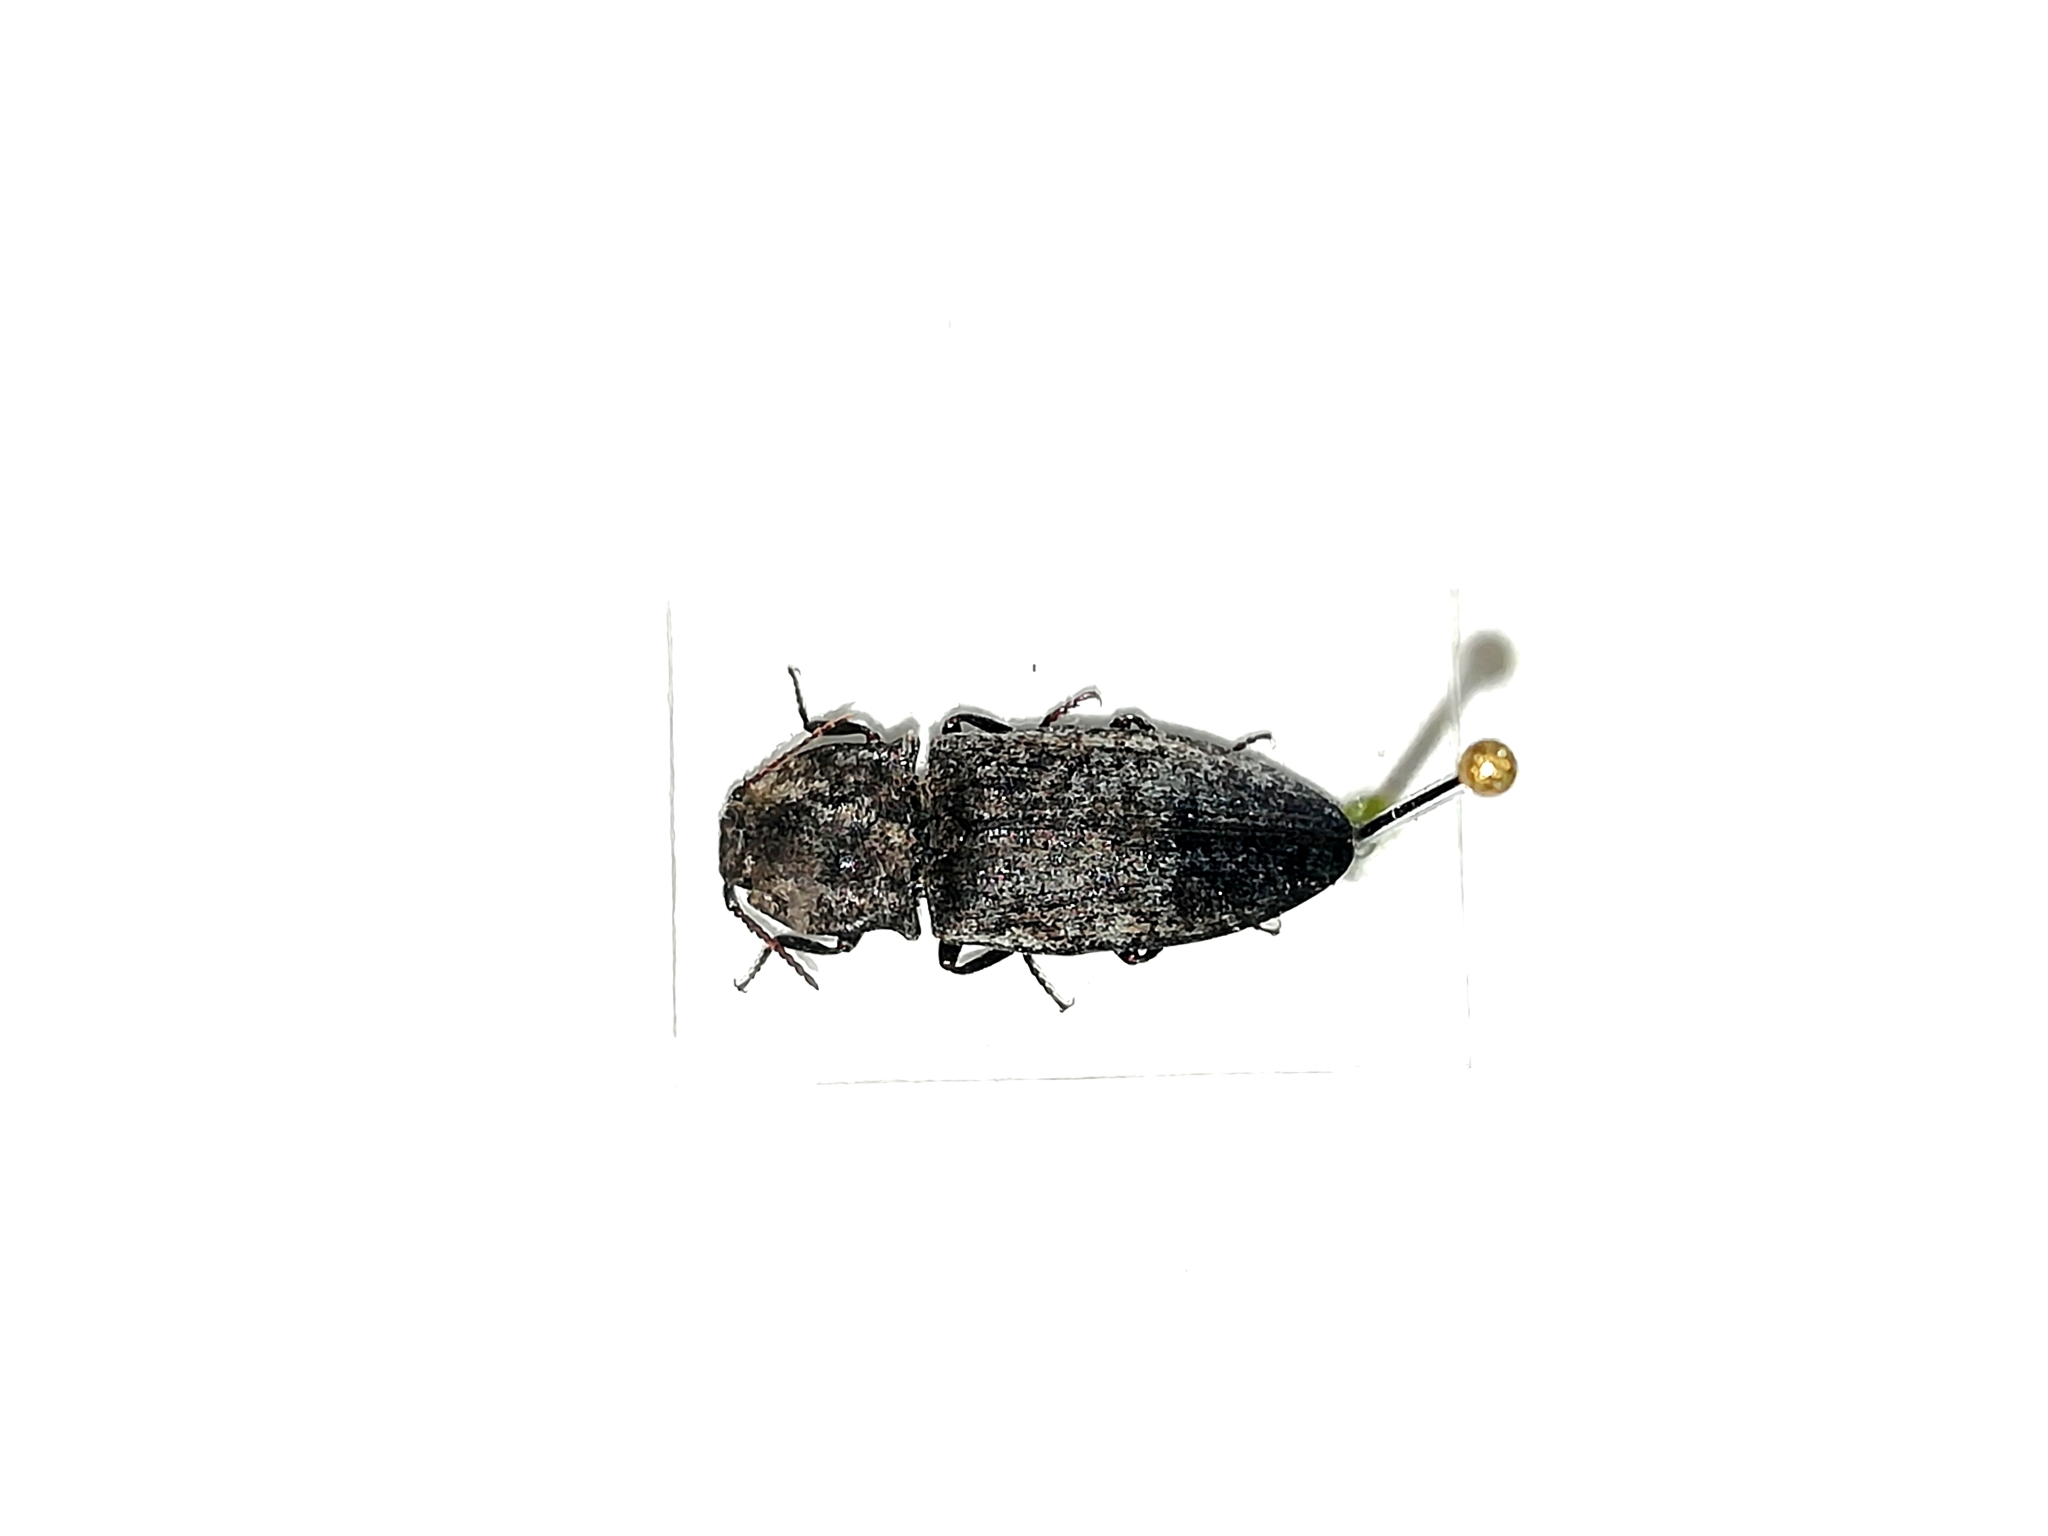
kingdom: Animalia
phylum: Arthropoda
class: Insecta
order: Coleoptera
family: Elateridae
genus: Agrypnus
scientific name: Agrypnus murinus
